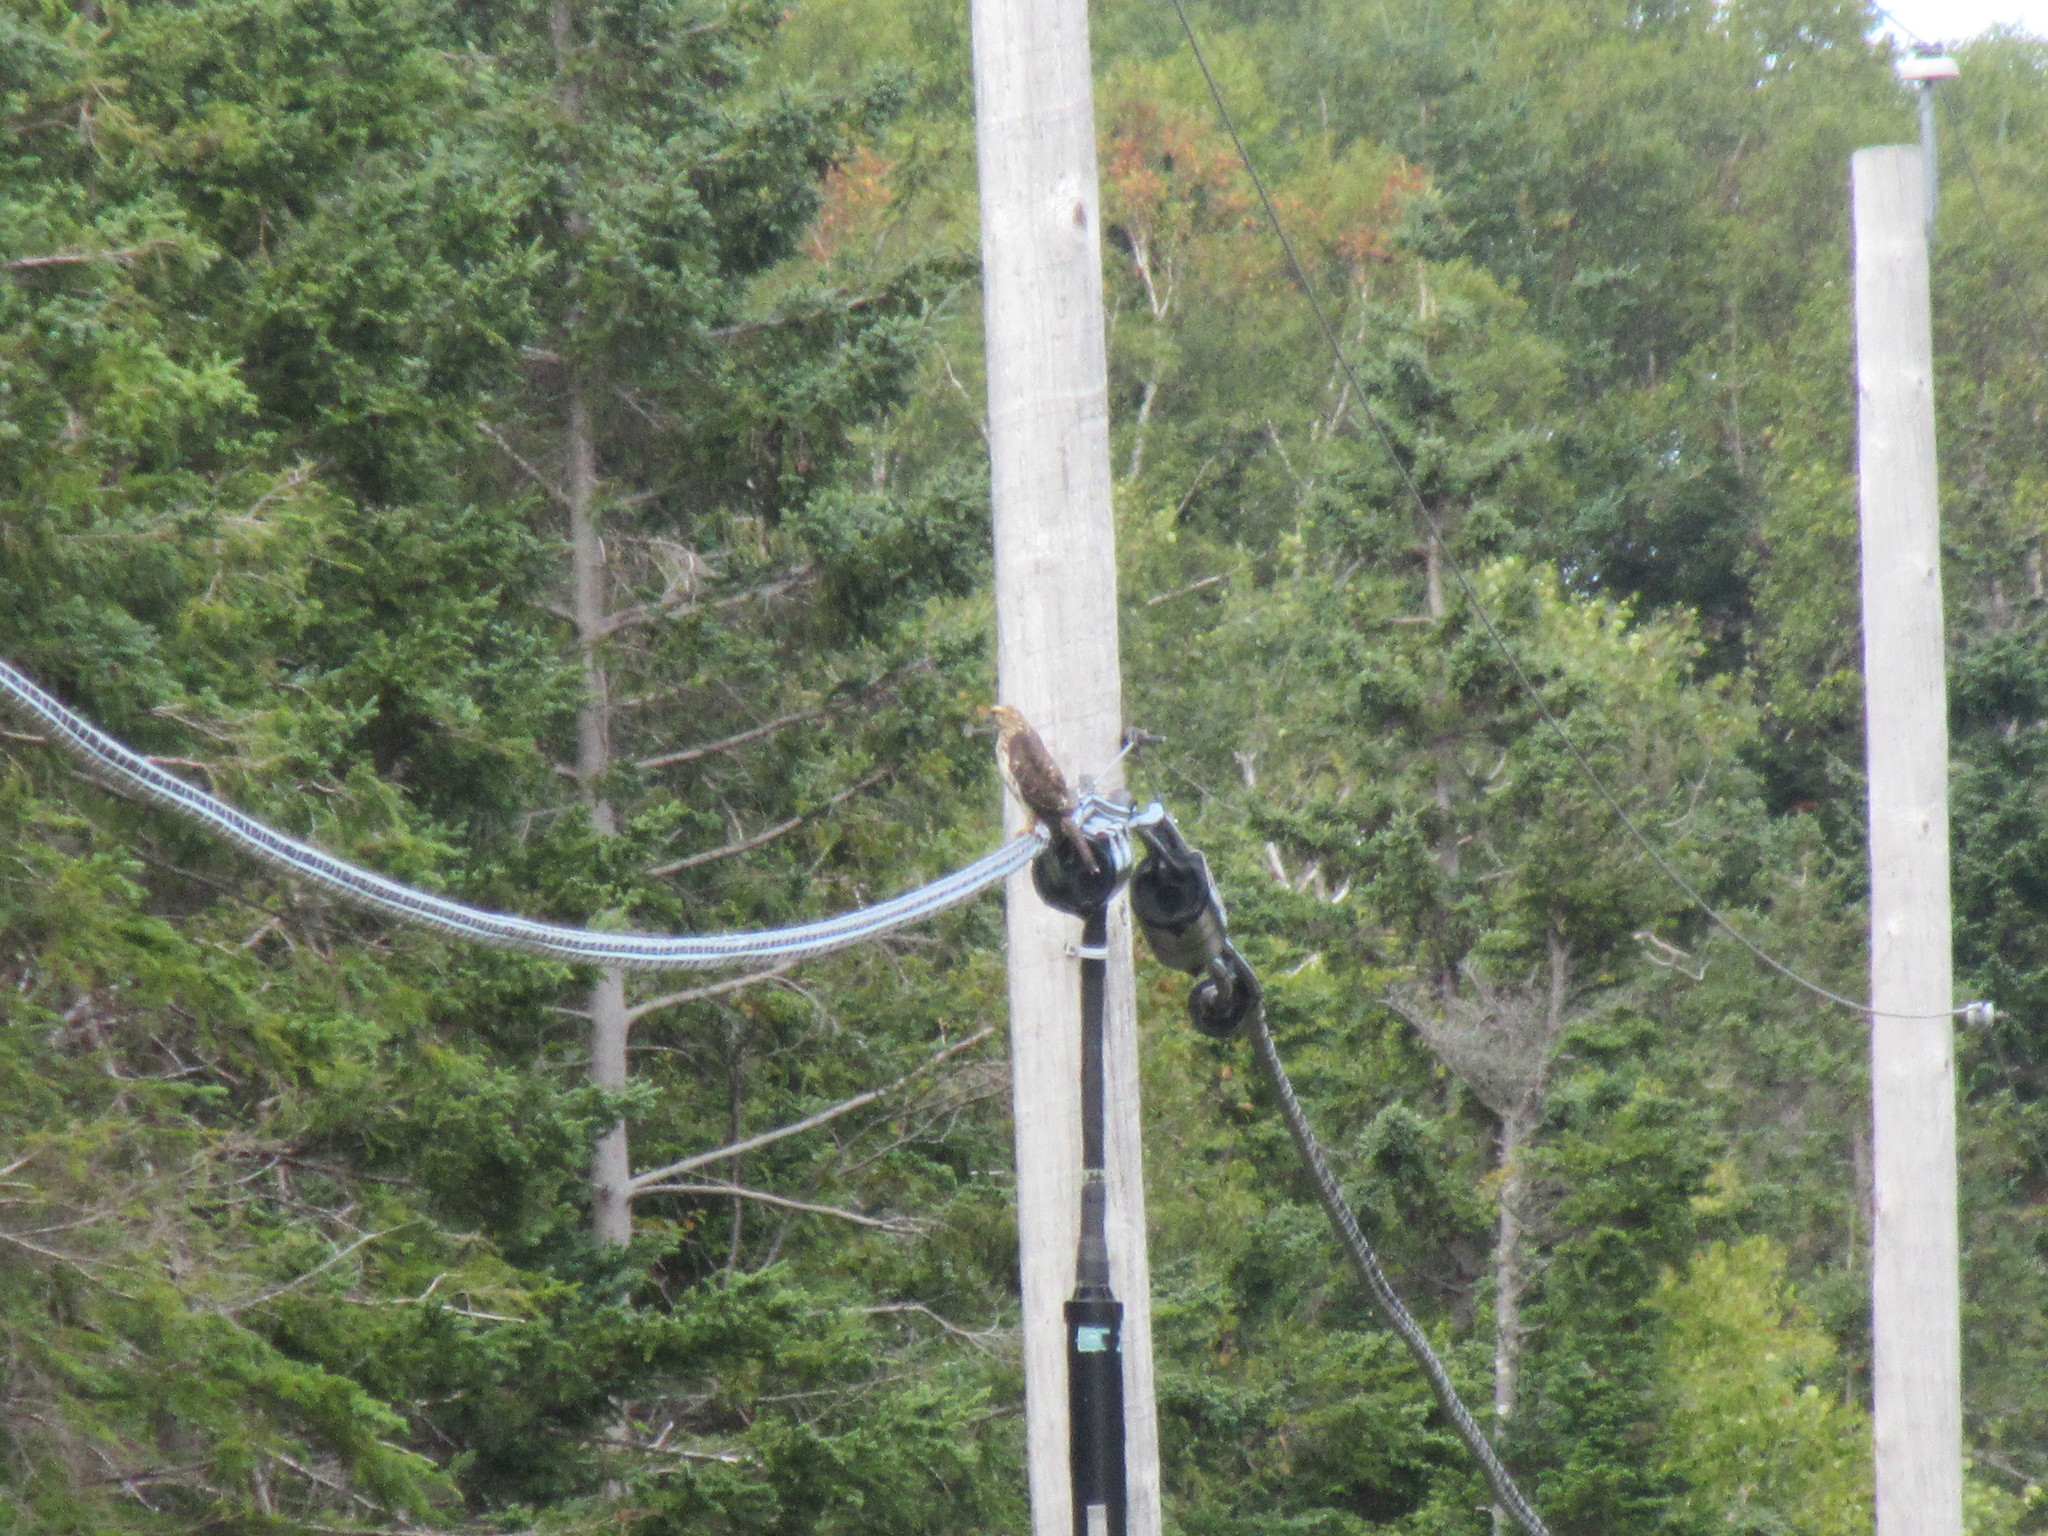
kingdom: Animalia
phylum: Chordata
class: Aves
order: Accipitriformes
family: Accipitridae
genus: Buteo
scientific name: Buteo platypterus
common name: Broad-winged hawk
